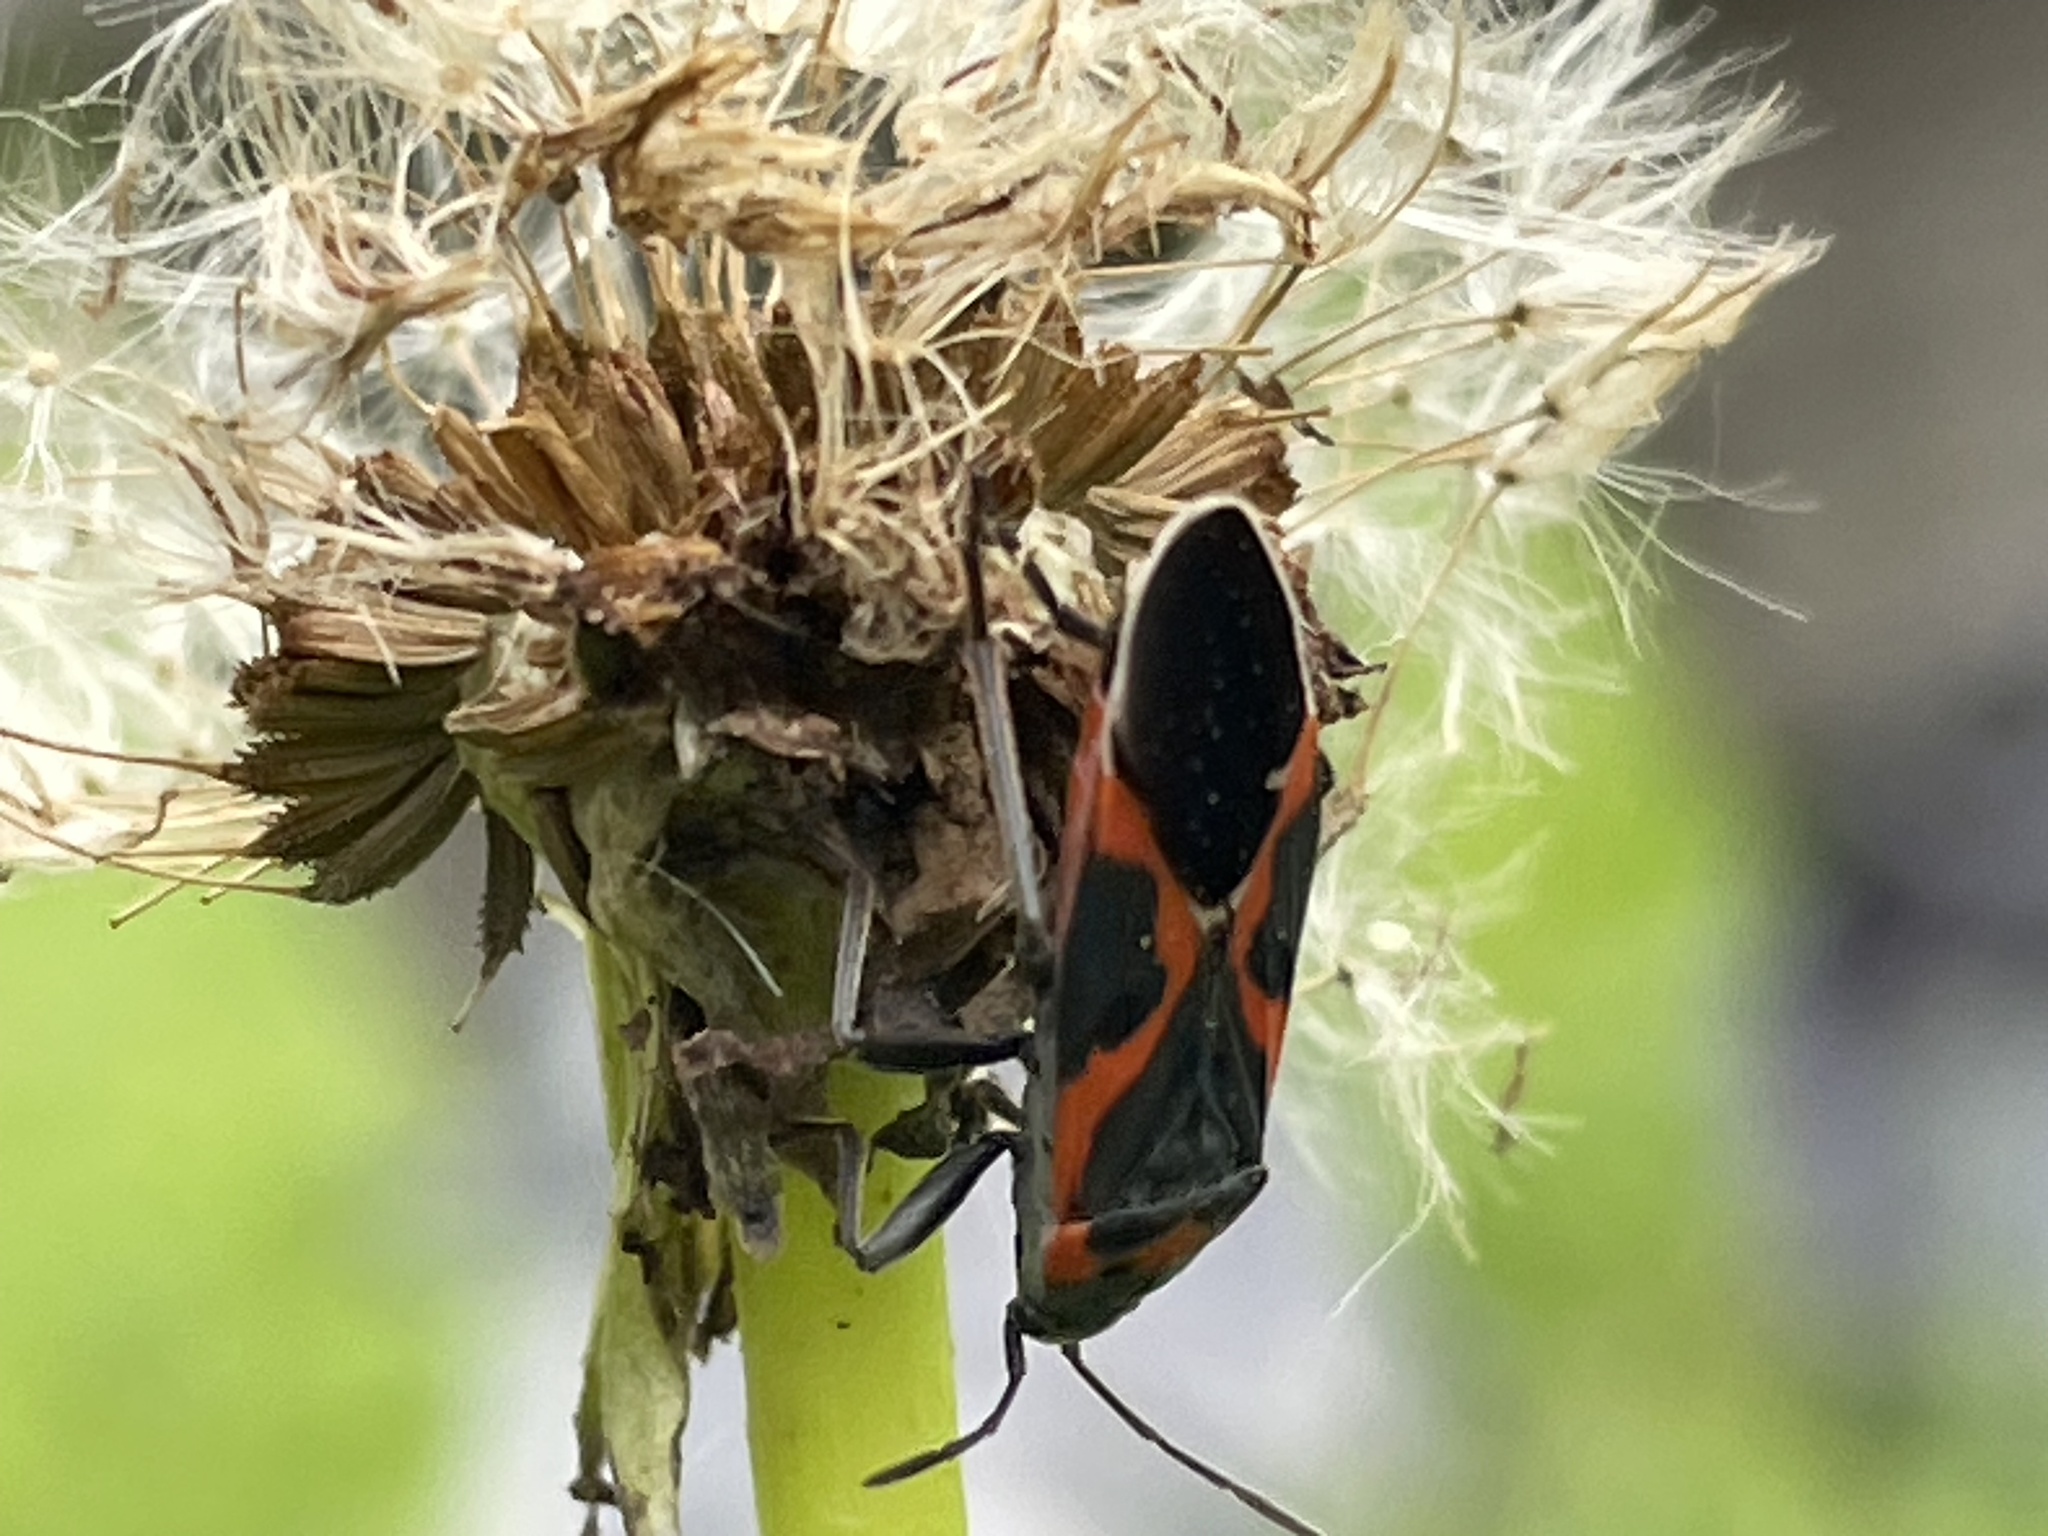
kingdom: Animalia
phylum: Arthropoda
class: Insecta
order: Hemiptera
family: Lygaeidae
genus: Lygaeus
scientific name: Lygaeus kalmii
